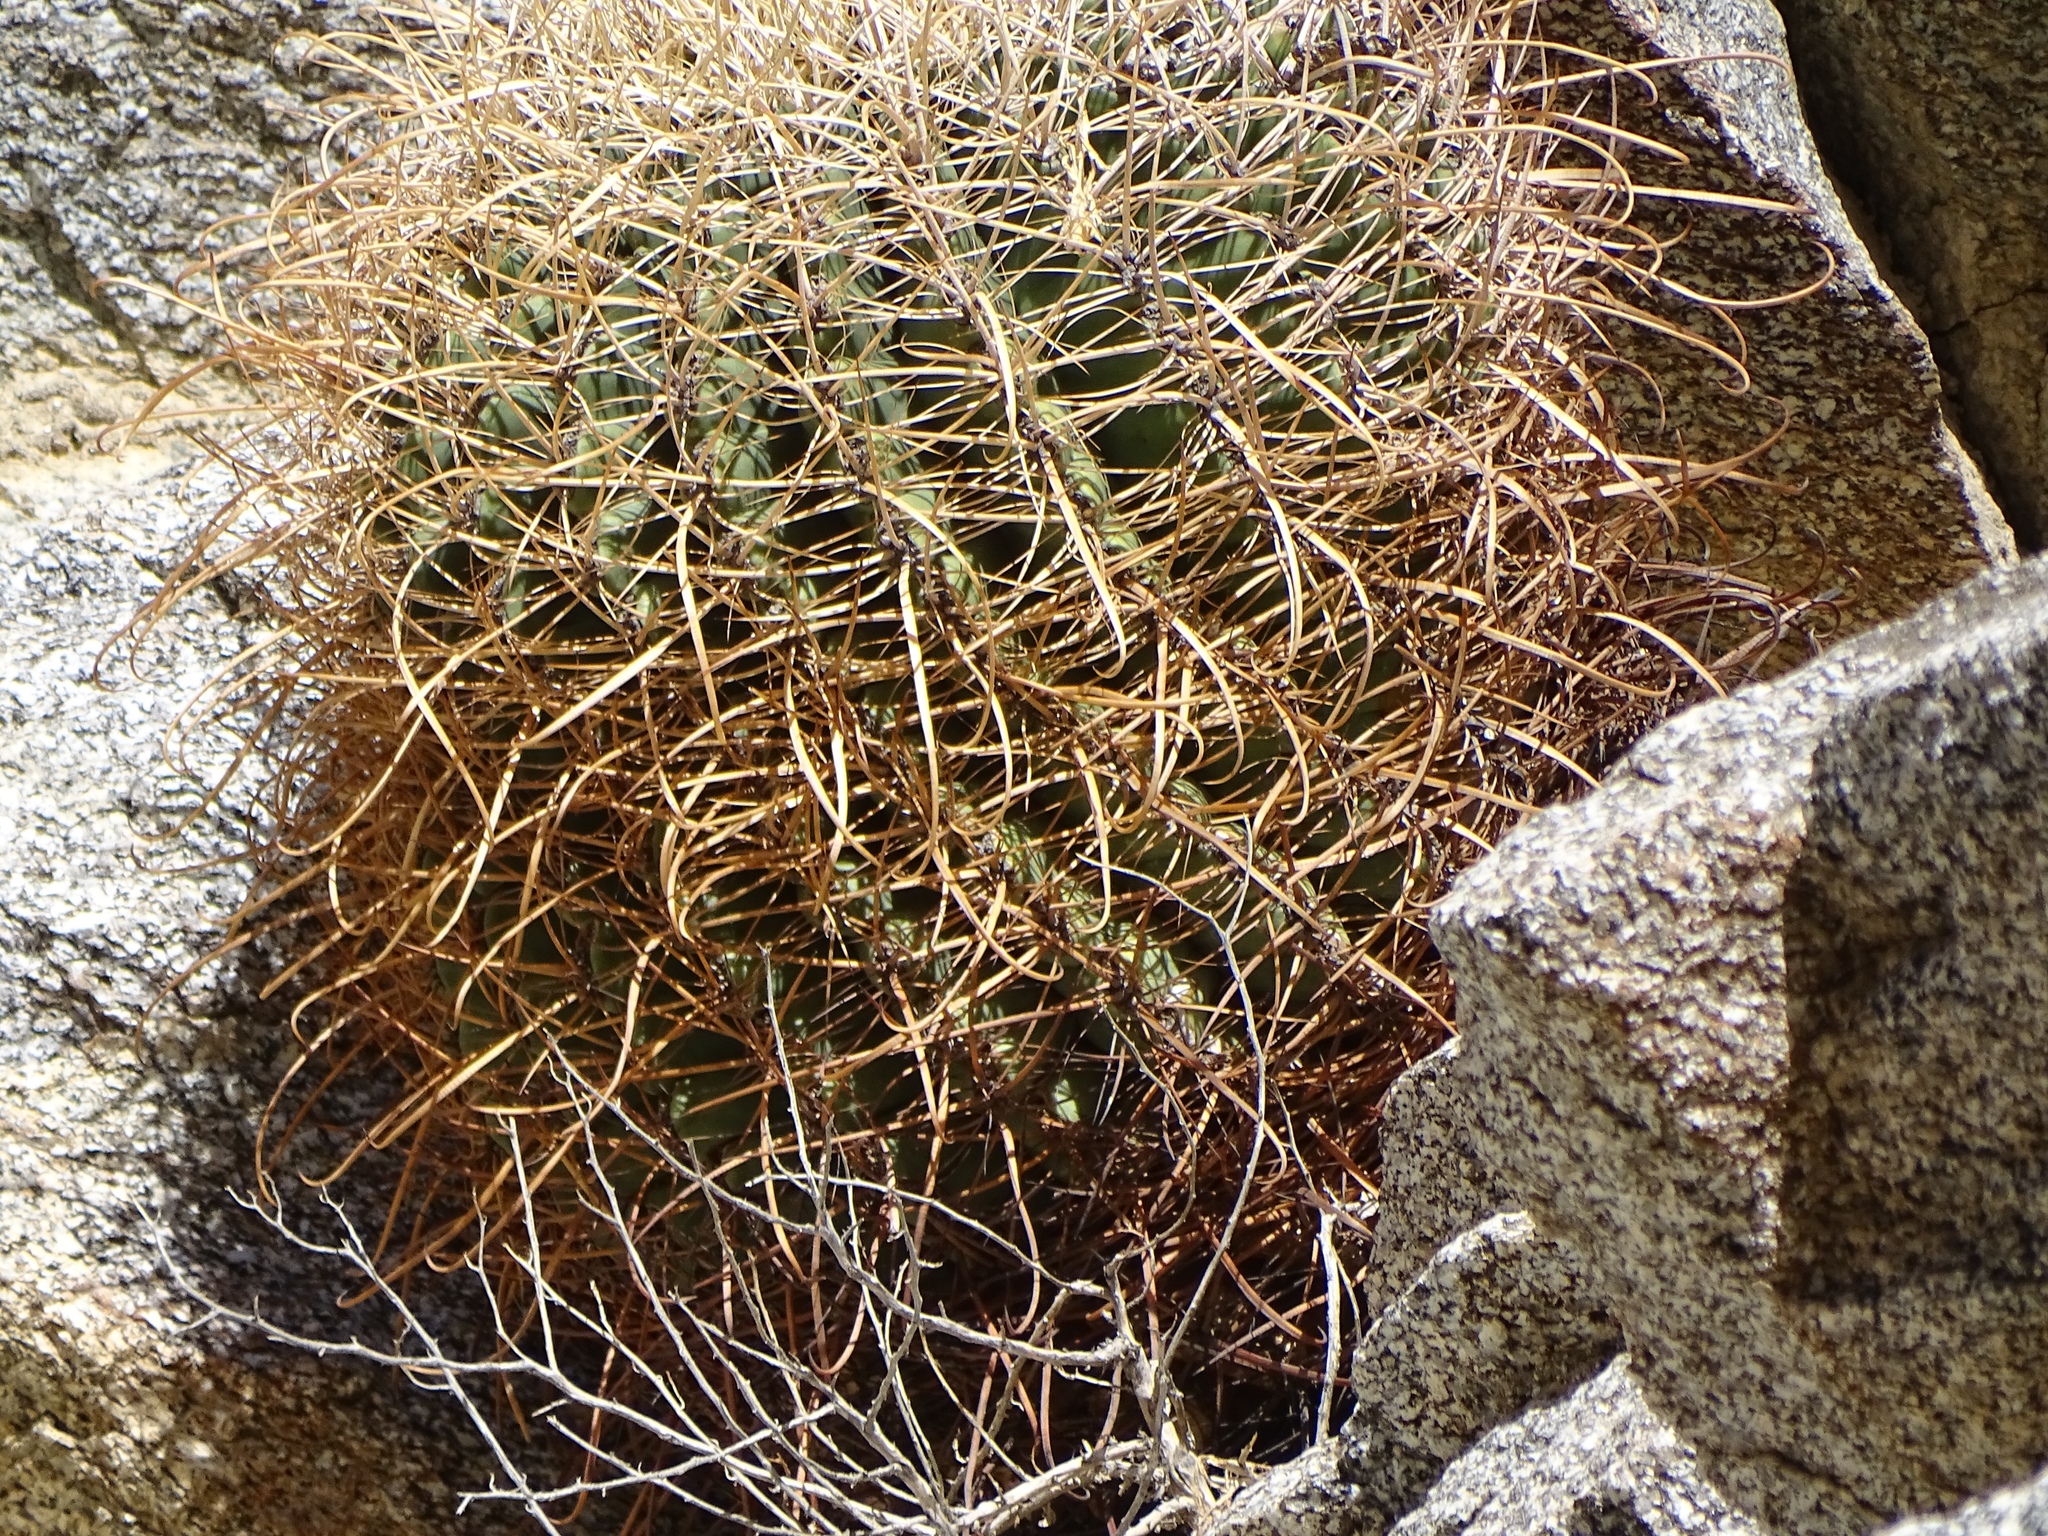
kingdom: Plantae
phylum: Tracheophyta
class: Magnoliopsida
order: Caryophyllales
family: Cactaceae
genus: Ferocactus
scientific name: Ferocactus cylindraceus
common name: California barrel cactus
